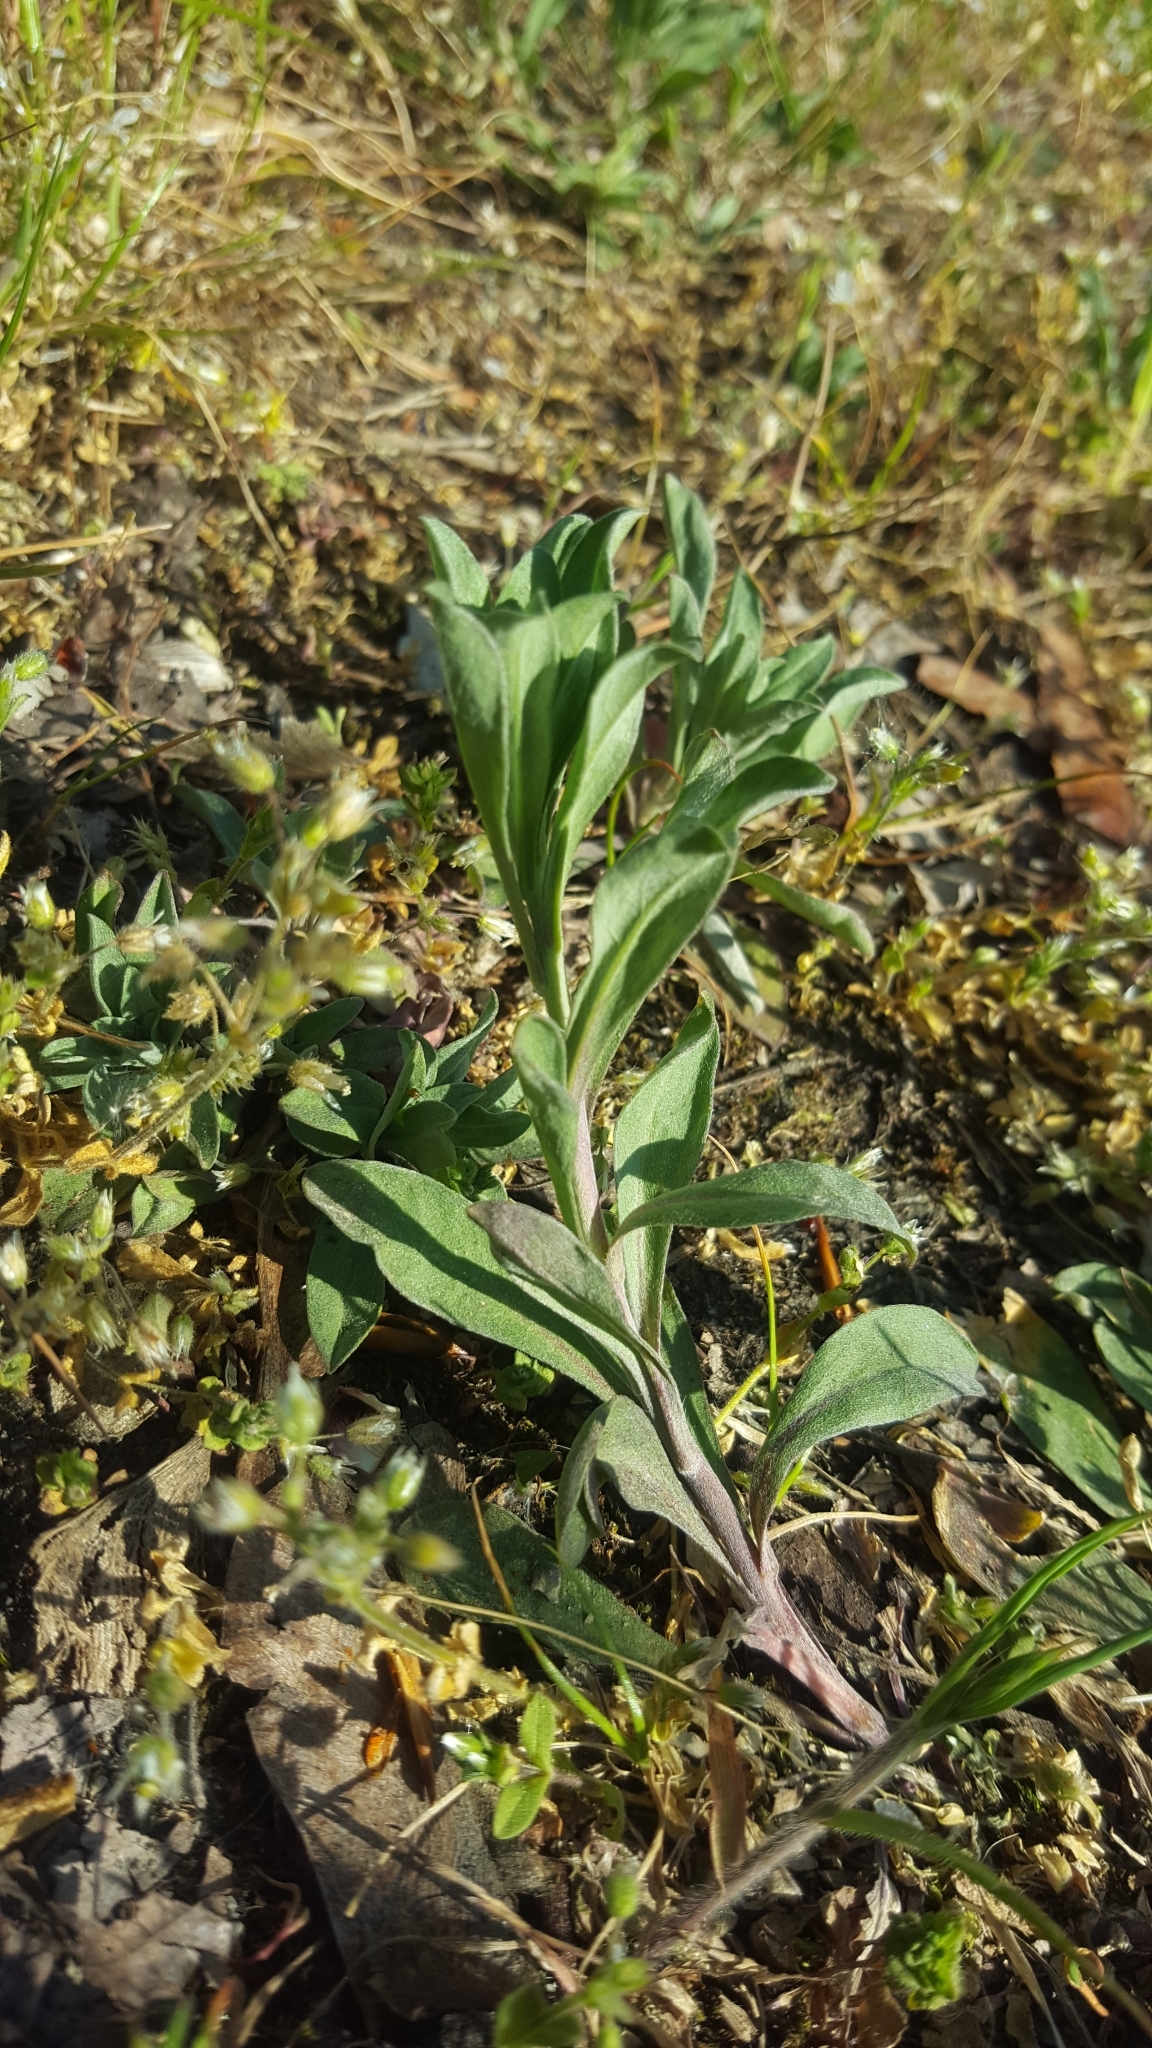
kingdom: Plantae
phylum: Tracheophyta
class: Magnoliopsida
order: Brassicales
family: Brassicaceae
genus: Berteroa
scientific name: Berteroa incana
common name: Hoary alison
